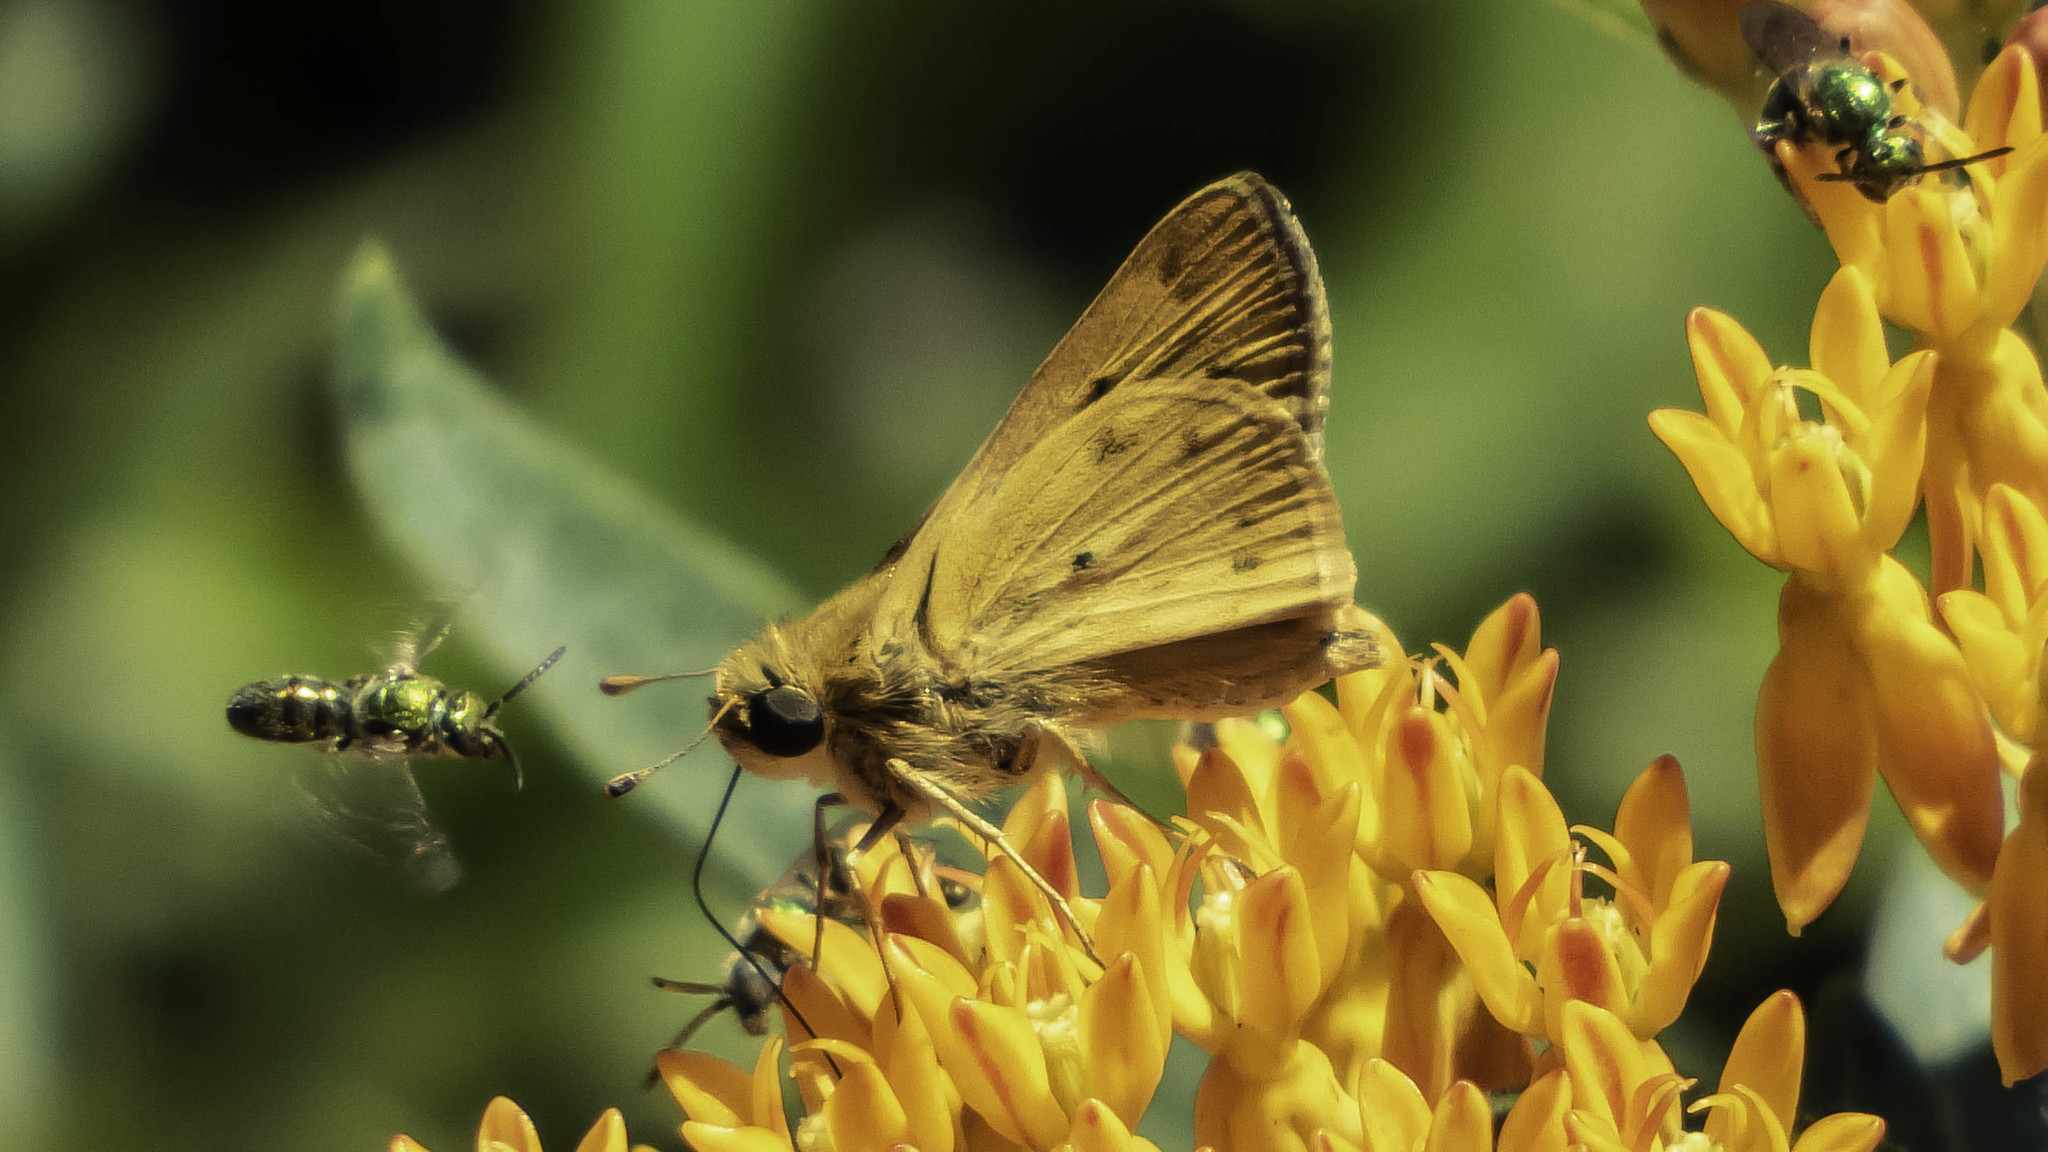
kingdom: Animalia
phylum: Arthropoda
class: Insecta
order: Lepidoptera
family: Hesperiidae
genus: Hylephila
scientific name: Hylephila phyleus
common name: Fiery skipper
